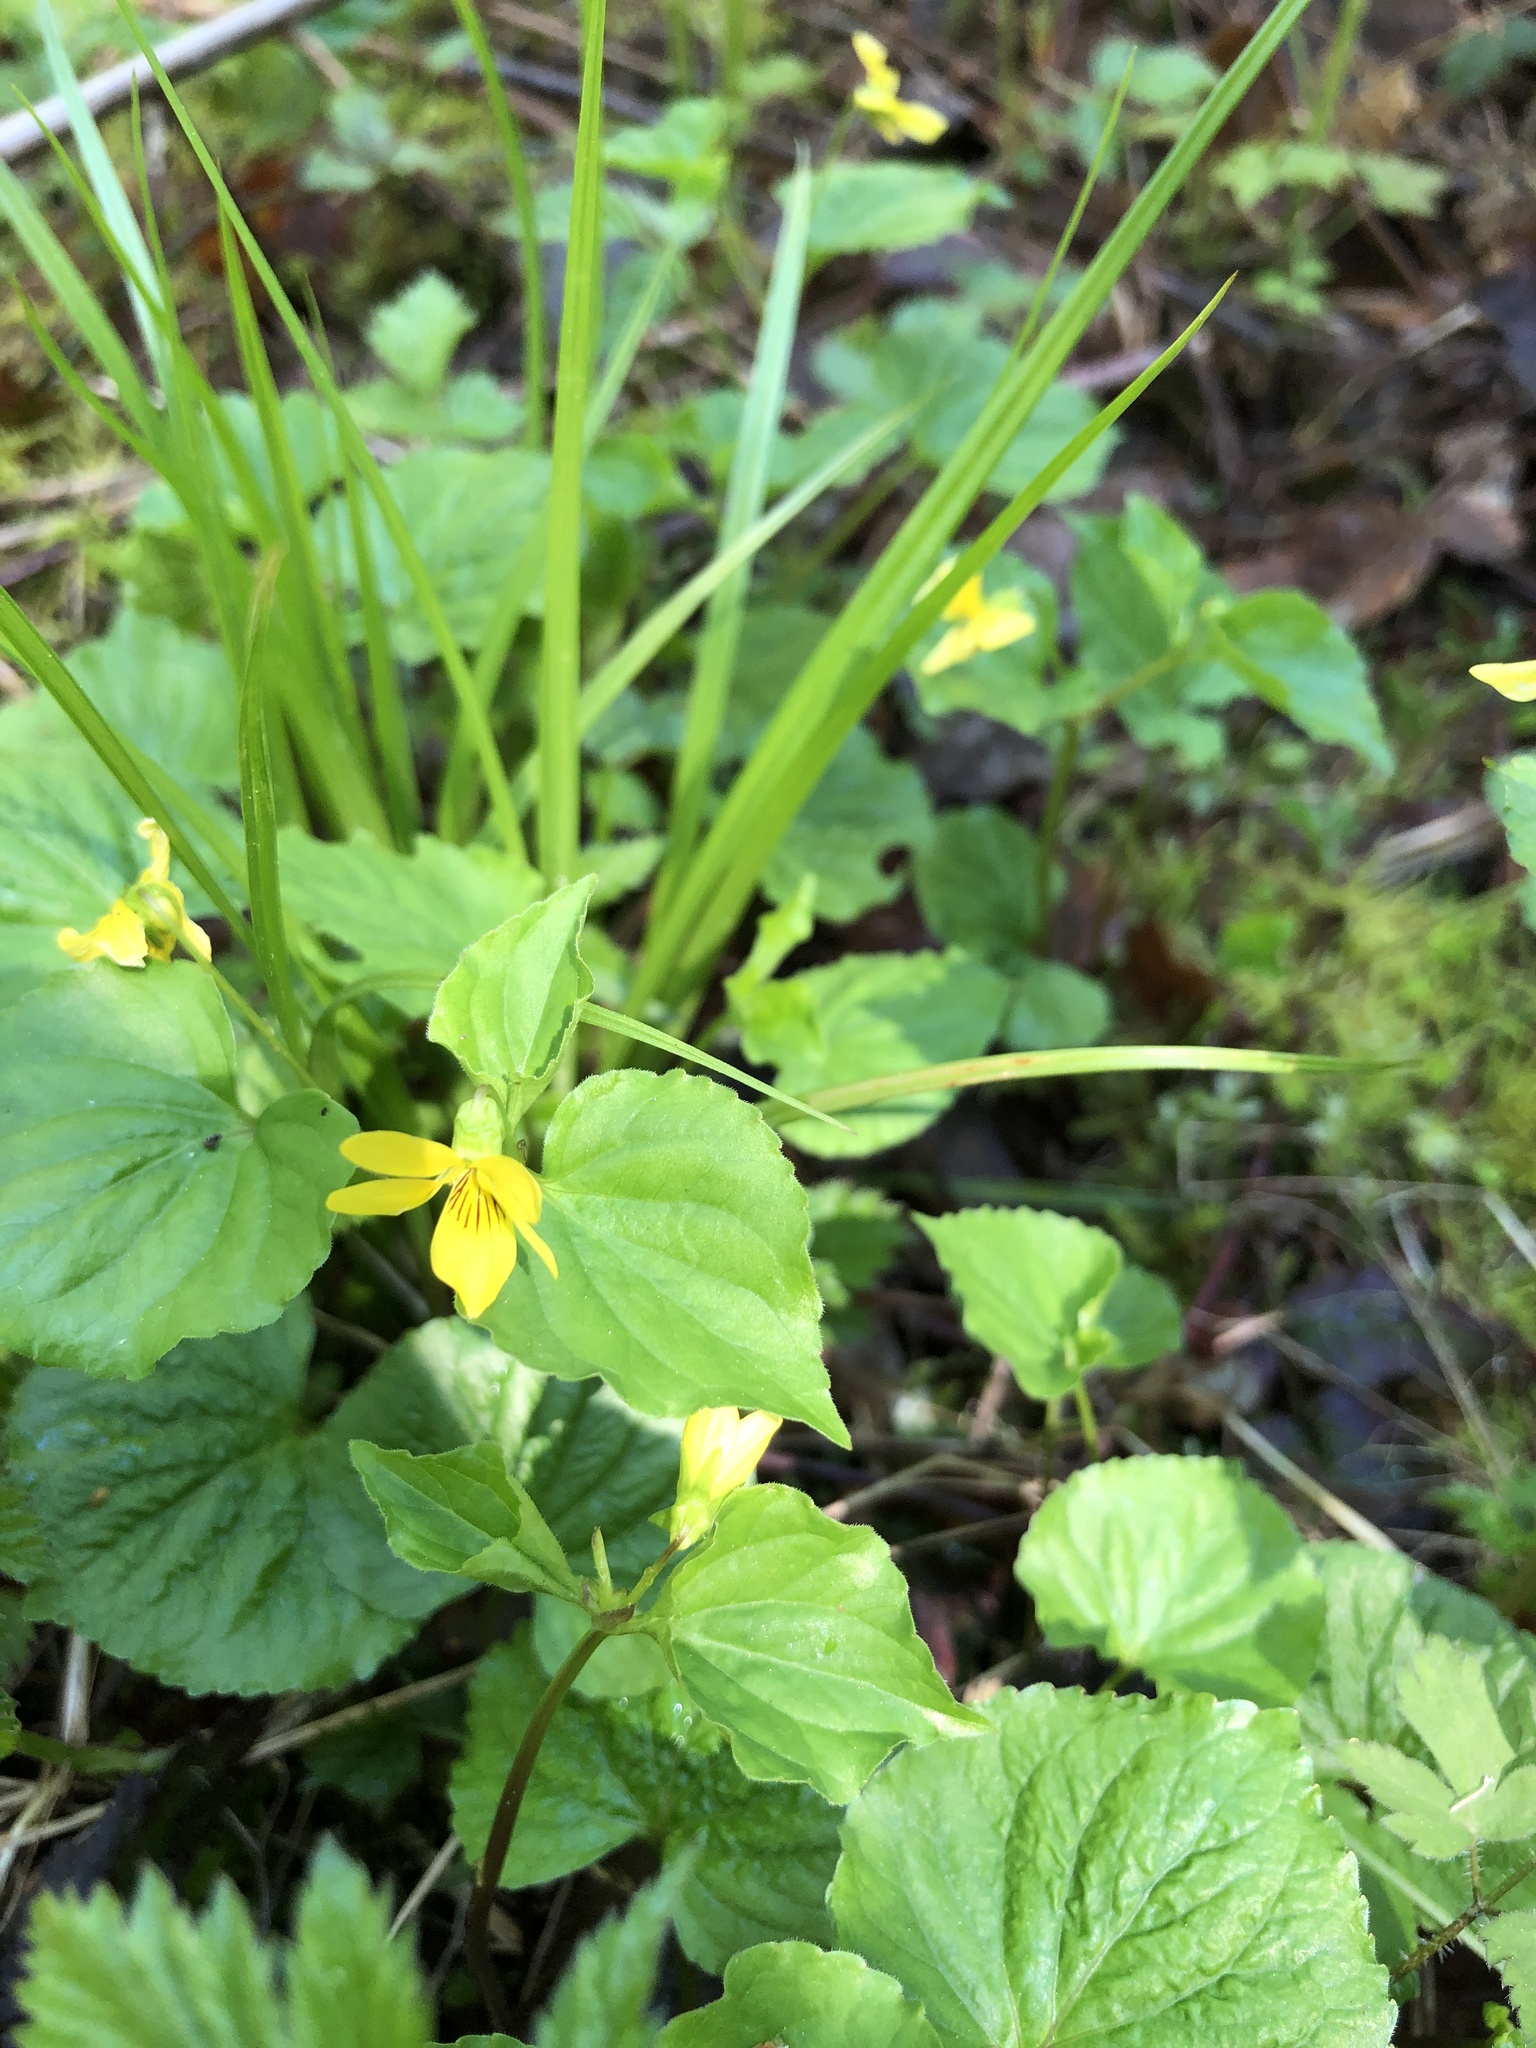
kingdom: Plantae
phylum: Tracheophyta
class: Magnoliopsida
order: Malpighiales
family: Violaceae
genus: Viola
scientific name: Viola glabella
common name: Stream violet
